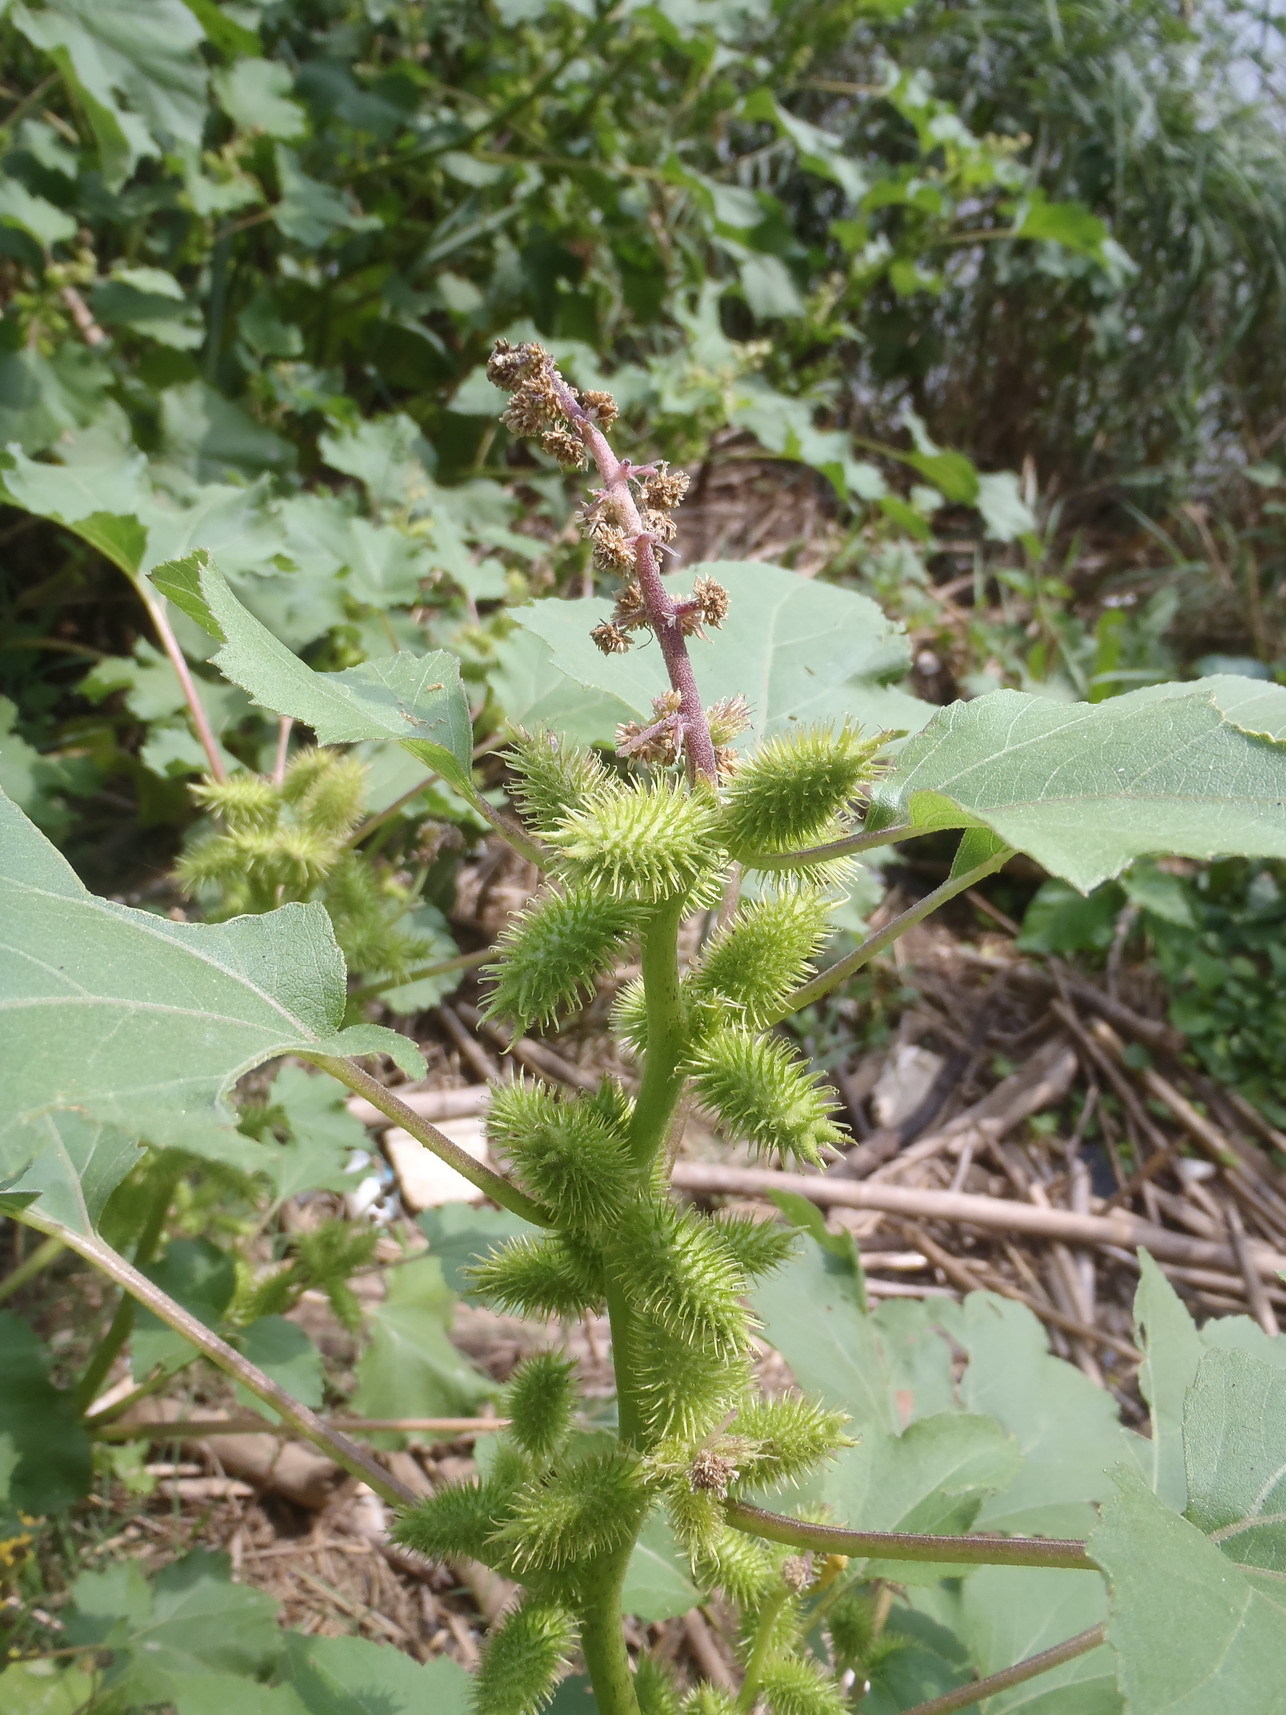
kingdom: Plantae
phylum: Tracheophyta
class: Magnoliopsida
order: Asterales
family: Asteraceae
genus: Xanthium
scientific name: Xanthium strumarium
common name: Rough cocklebur
